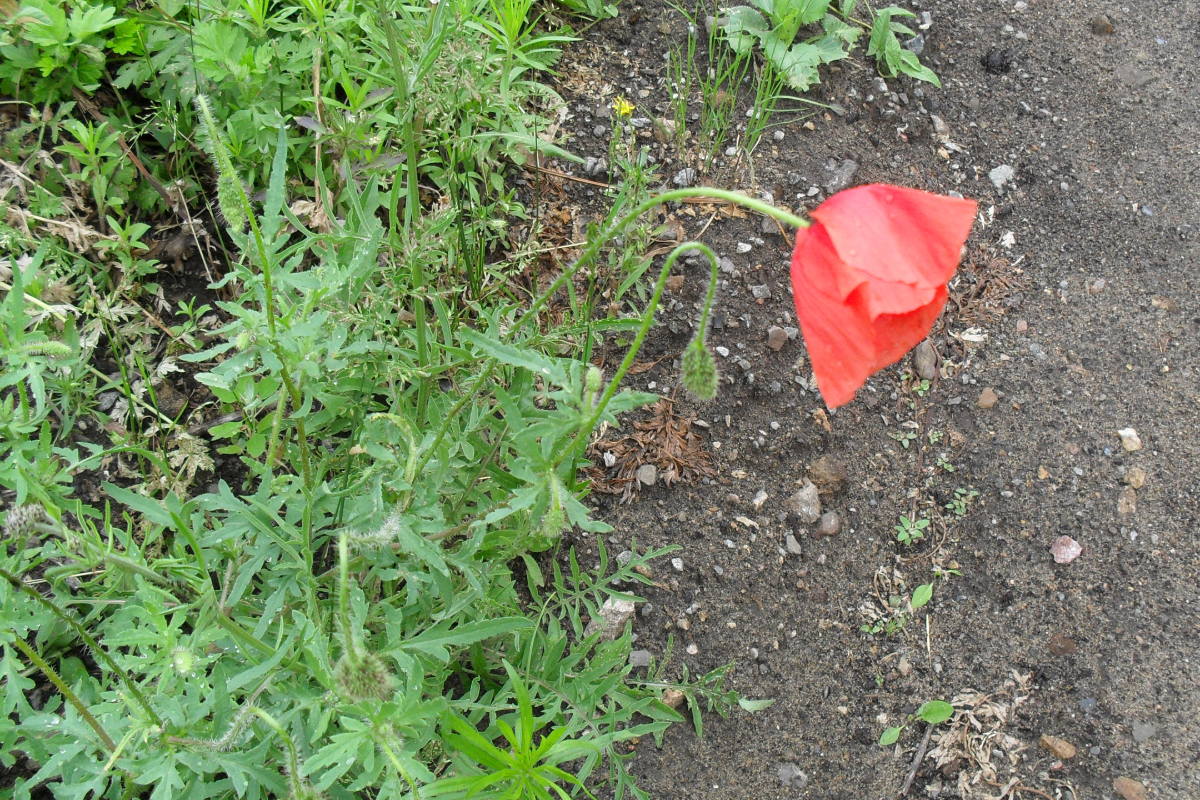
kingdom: Plantae
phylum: Tracheophyta
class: Magnoliopsida
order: Ranunculales
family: Papaveraceae
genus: Papaver
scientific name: Papaver rhoeas
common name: Corn poppy
